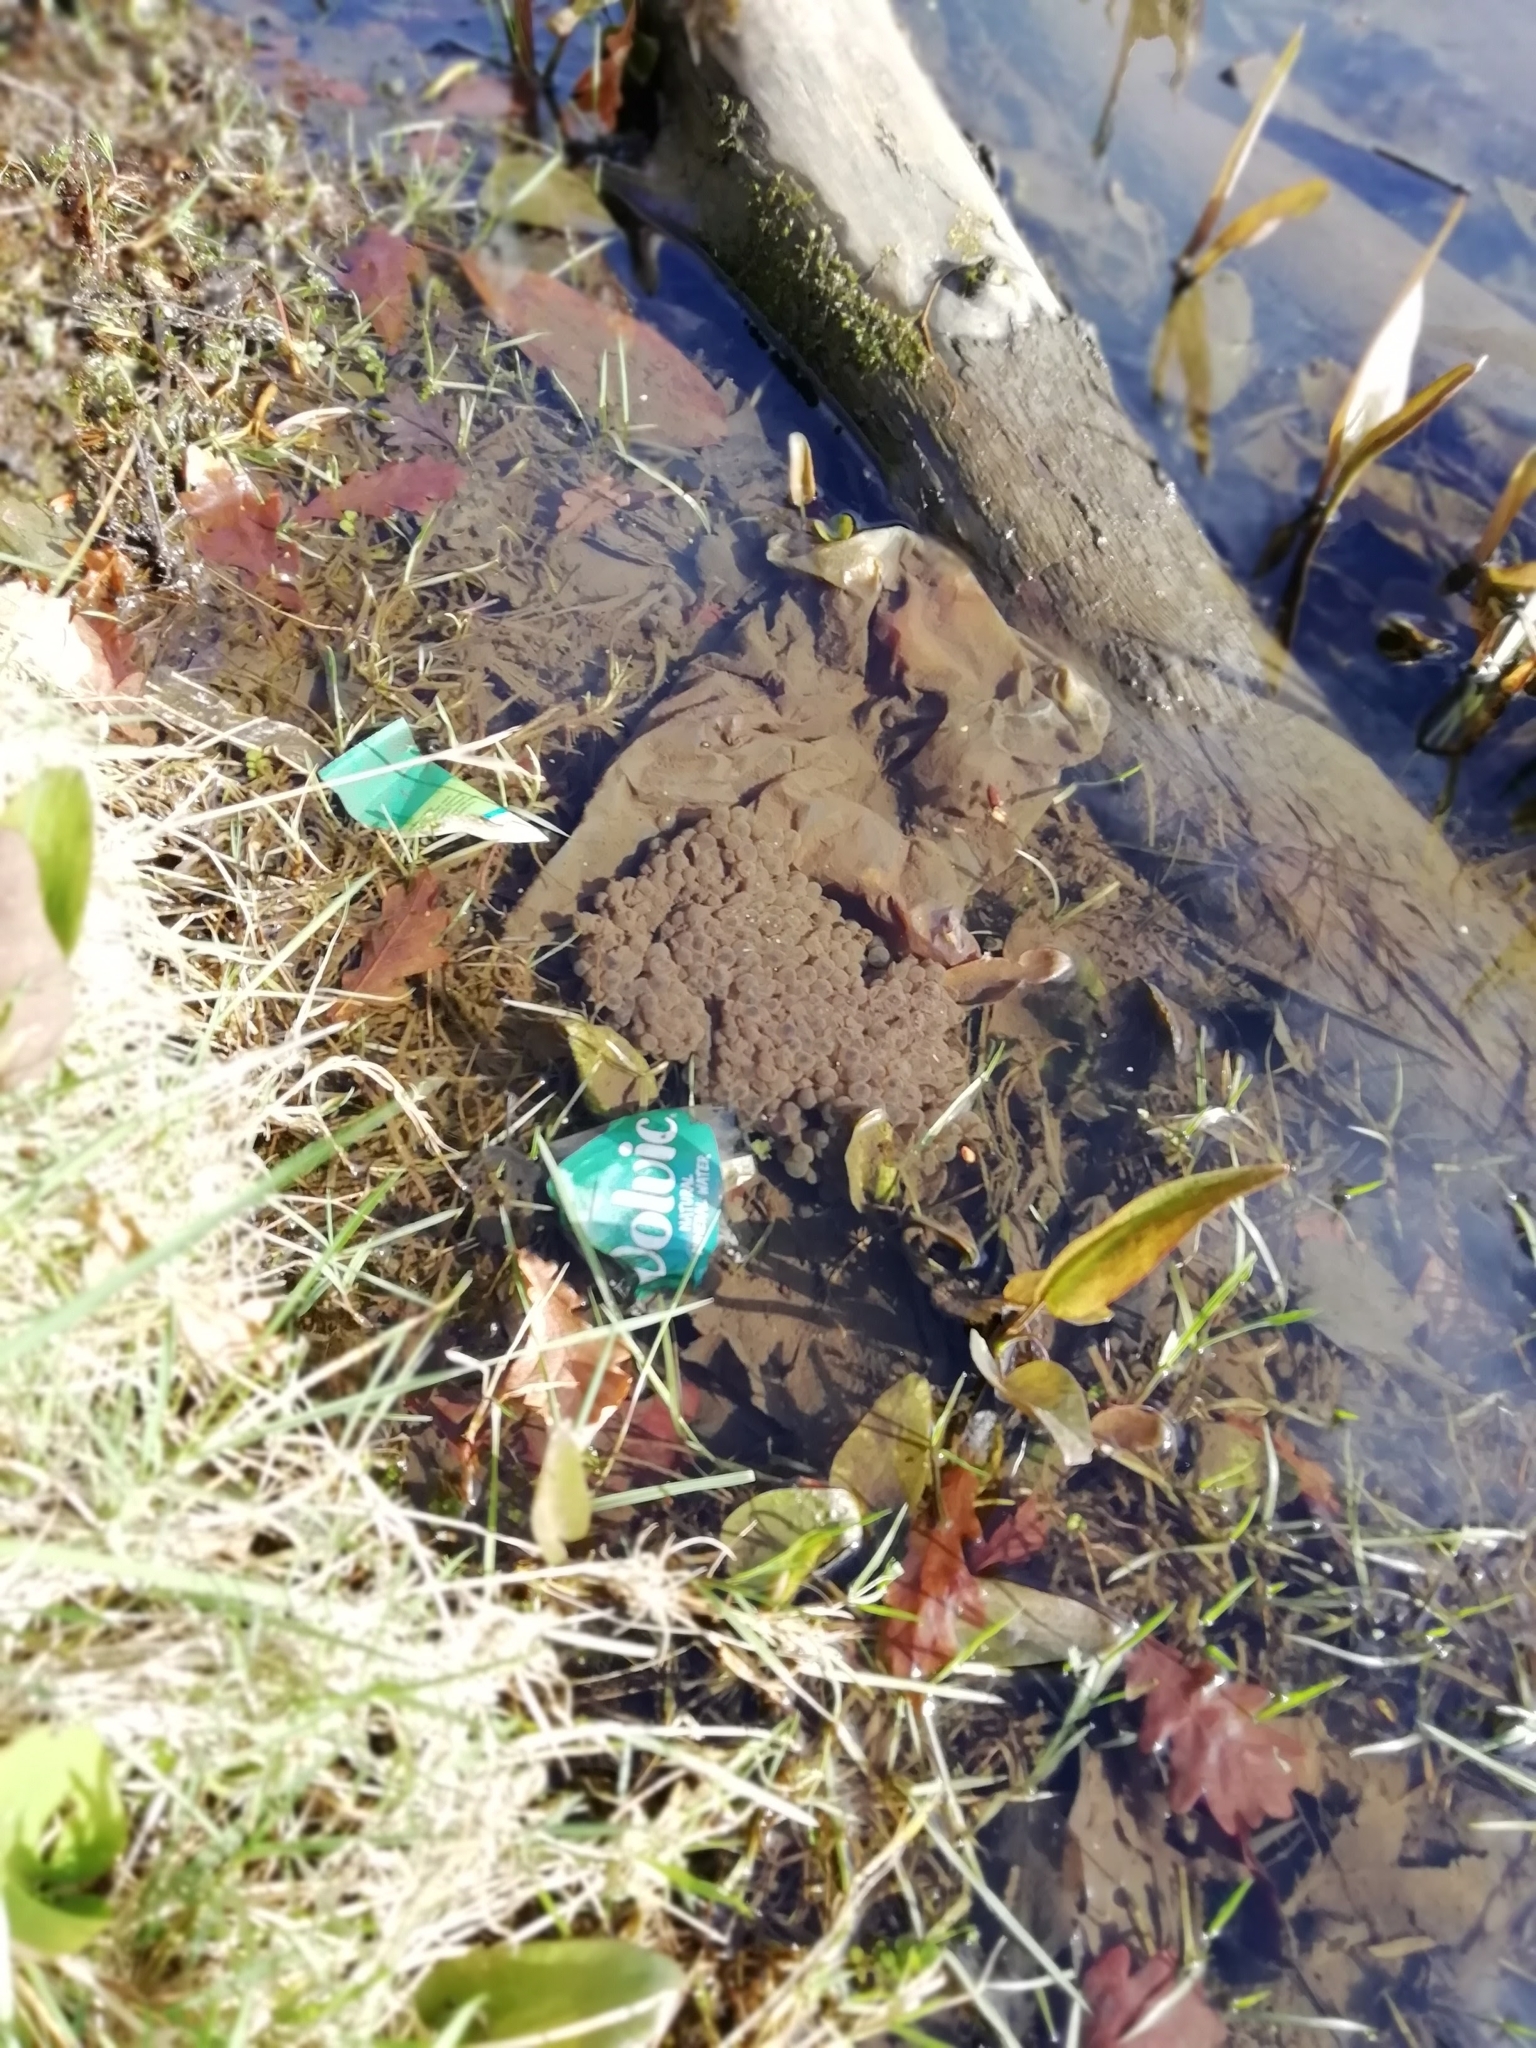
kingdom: Animalia
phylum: Chordata
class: Amphibia
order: Anura
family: Ranidae
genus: Rana
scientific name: Rana temporaria
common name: Common frog
